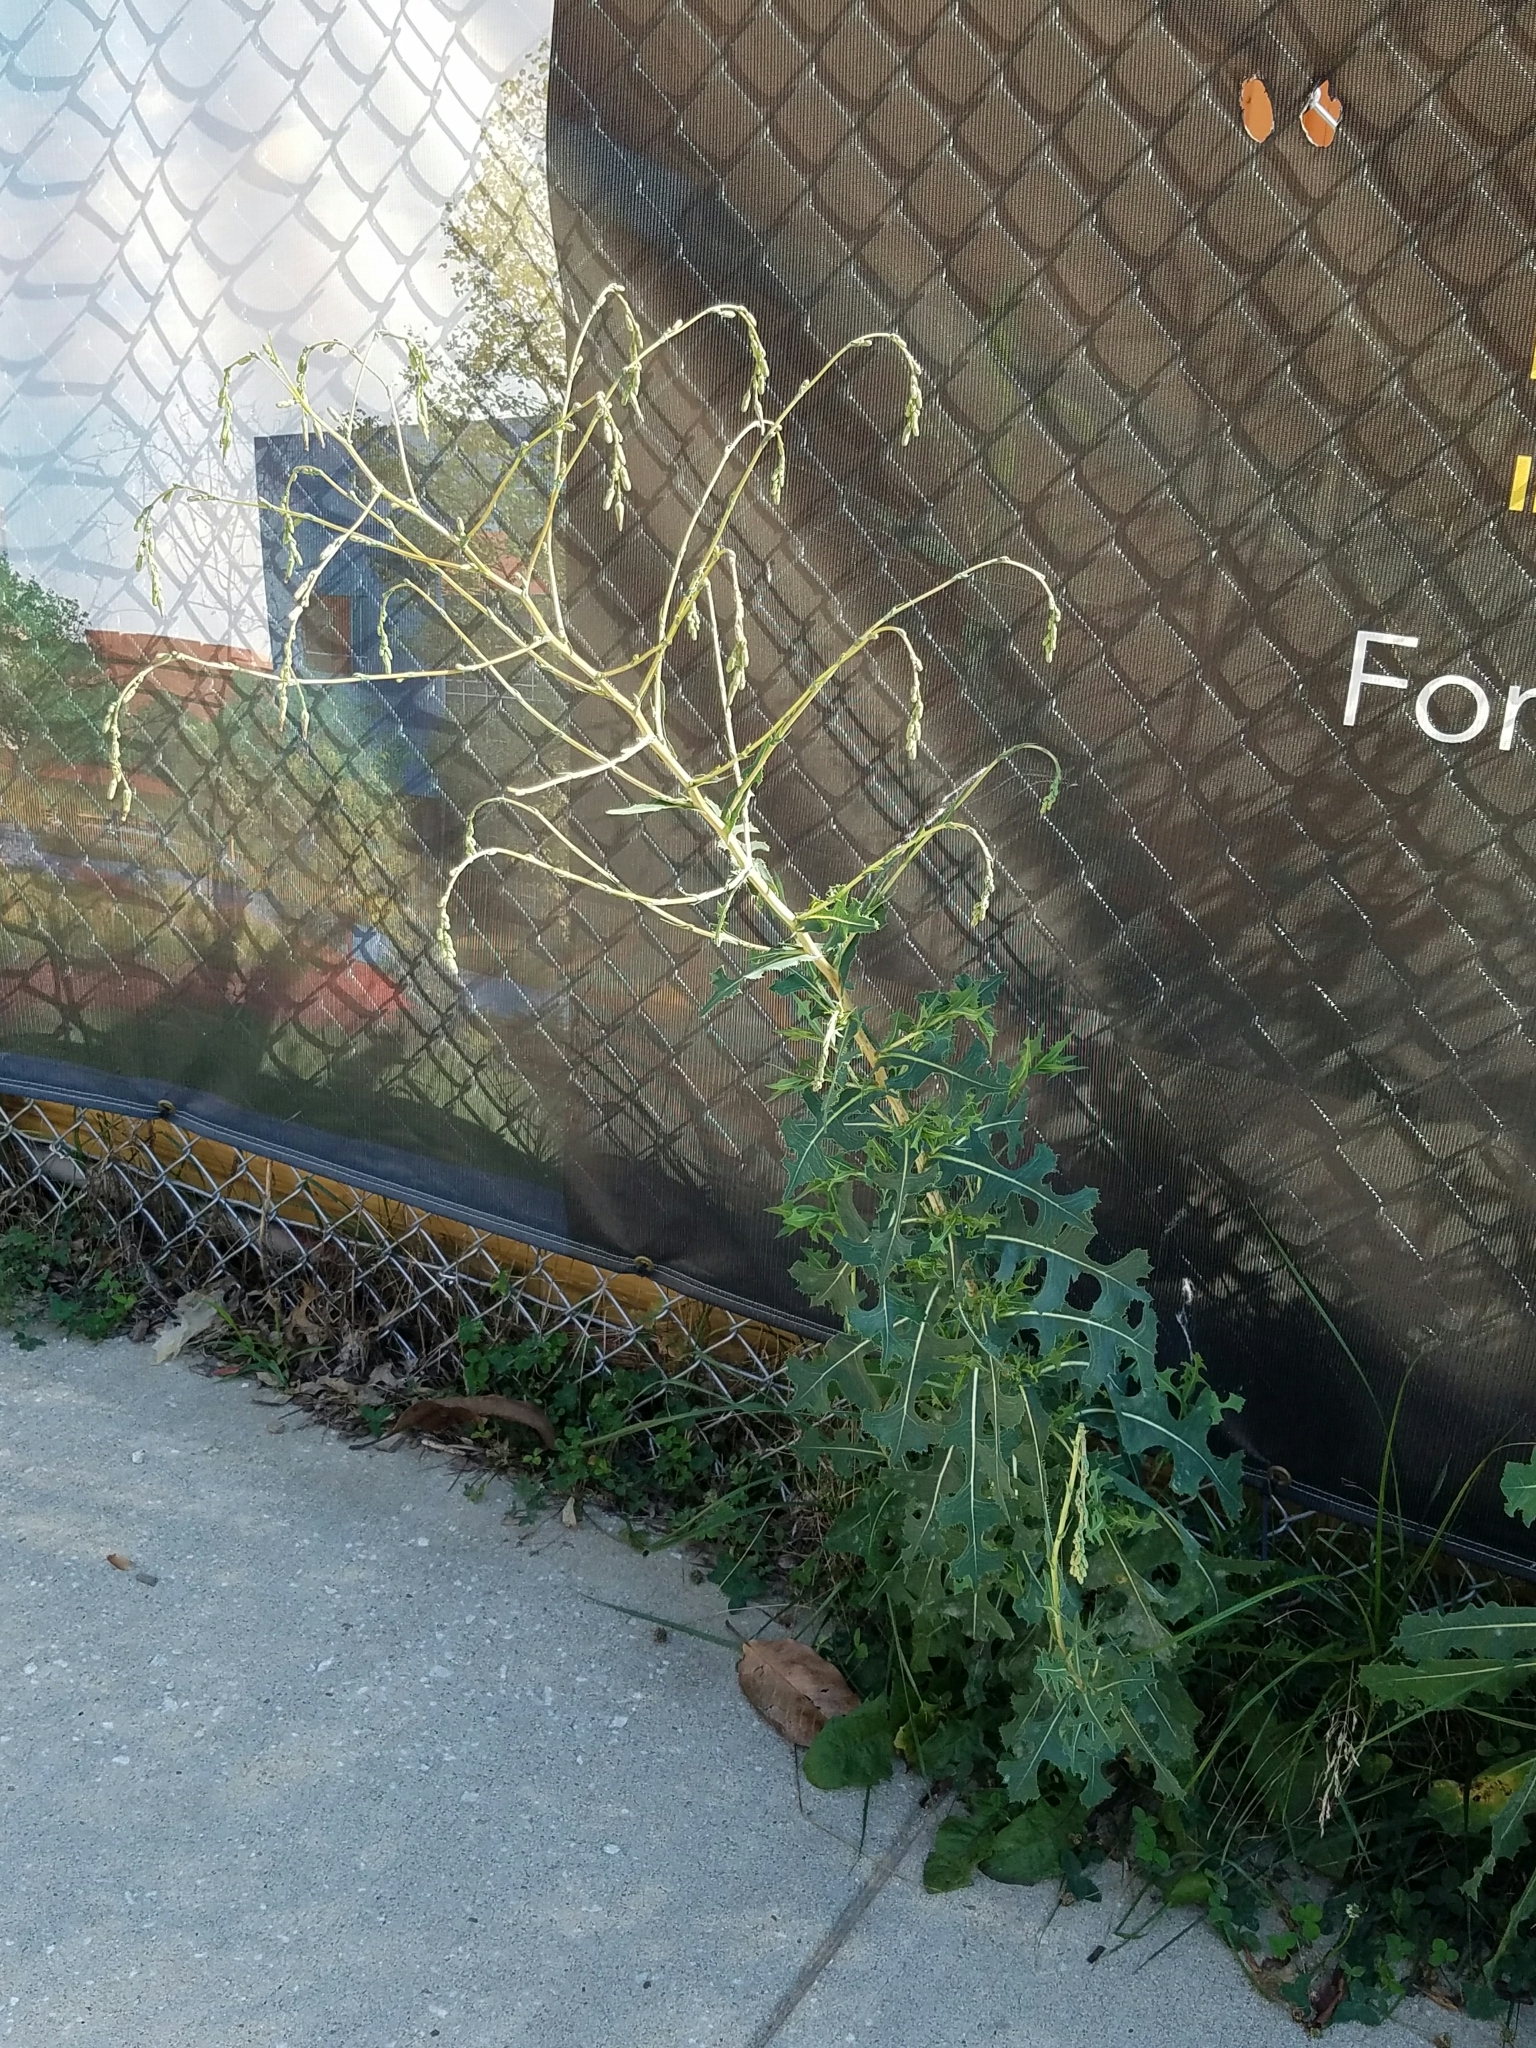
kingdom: Plantae
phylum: Tracheophyta
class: Magnoliopsida
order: Asterales
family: Asteraceae
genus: Lactuca
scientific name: Lactuca serriola
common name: Prickly lettuce
